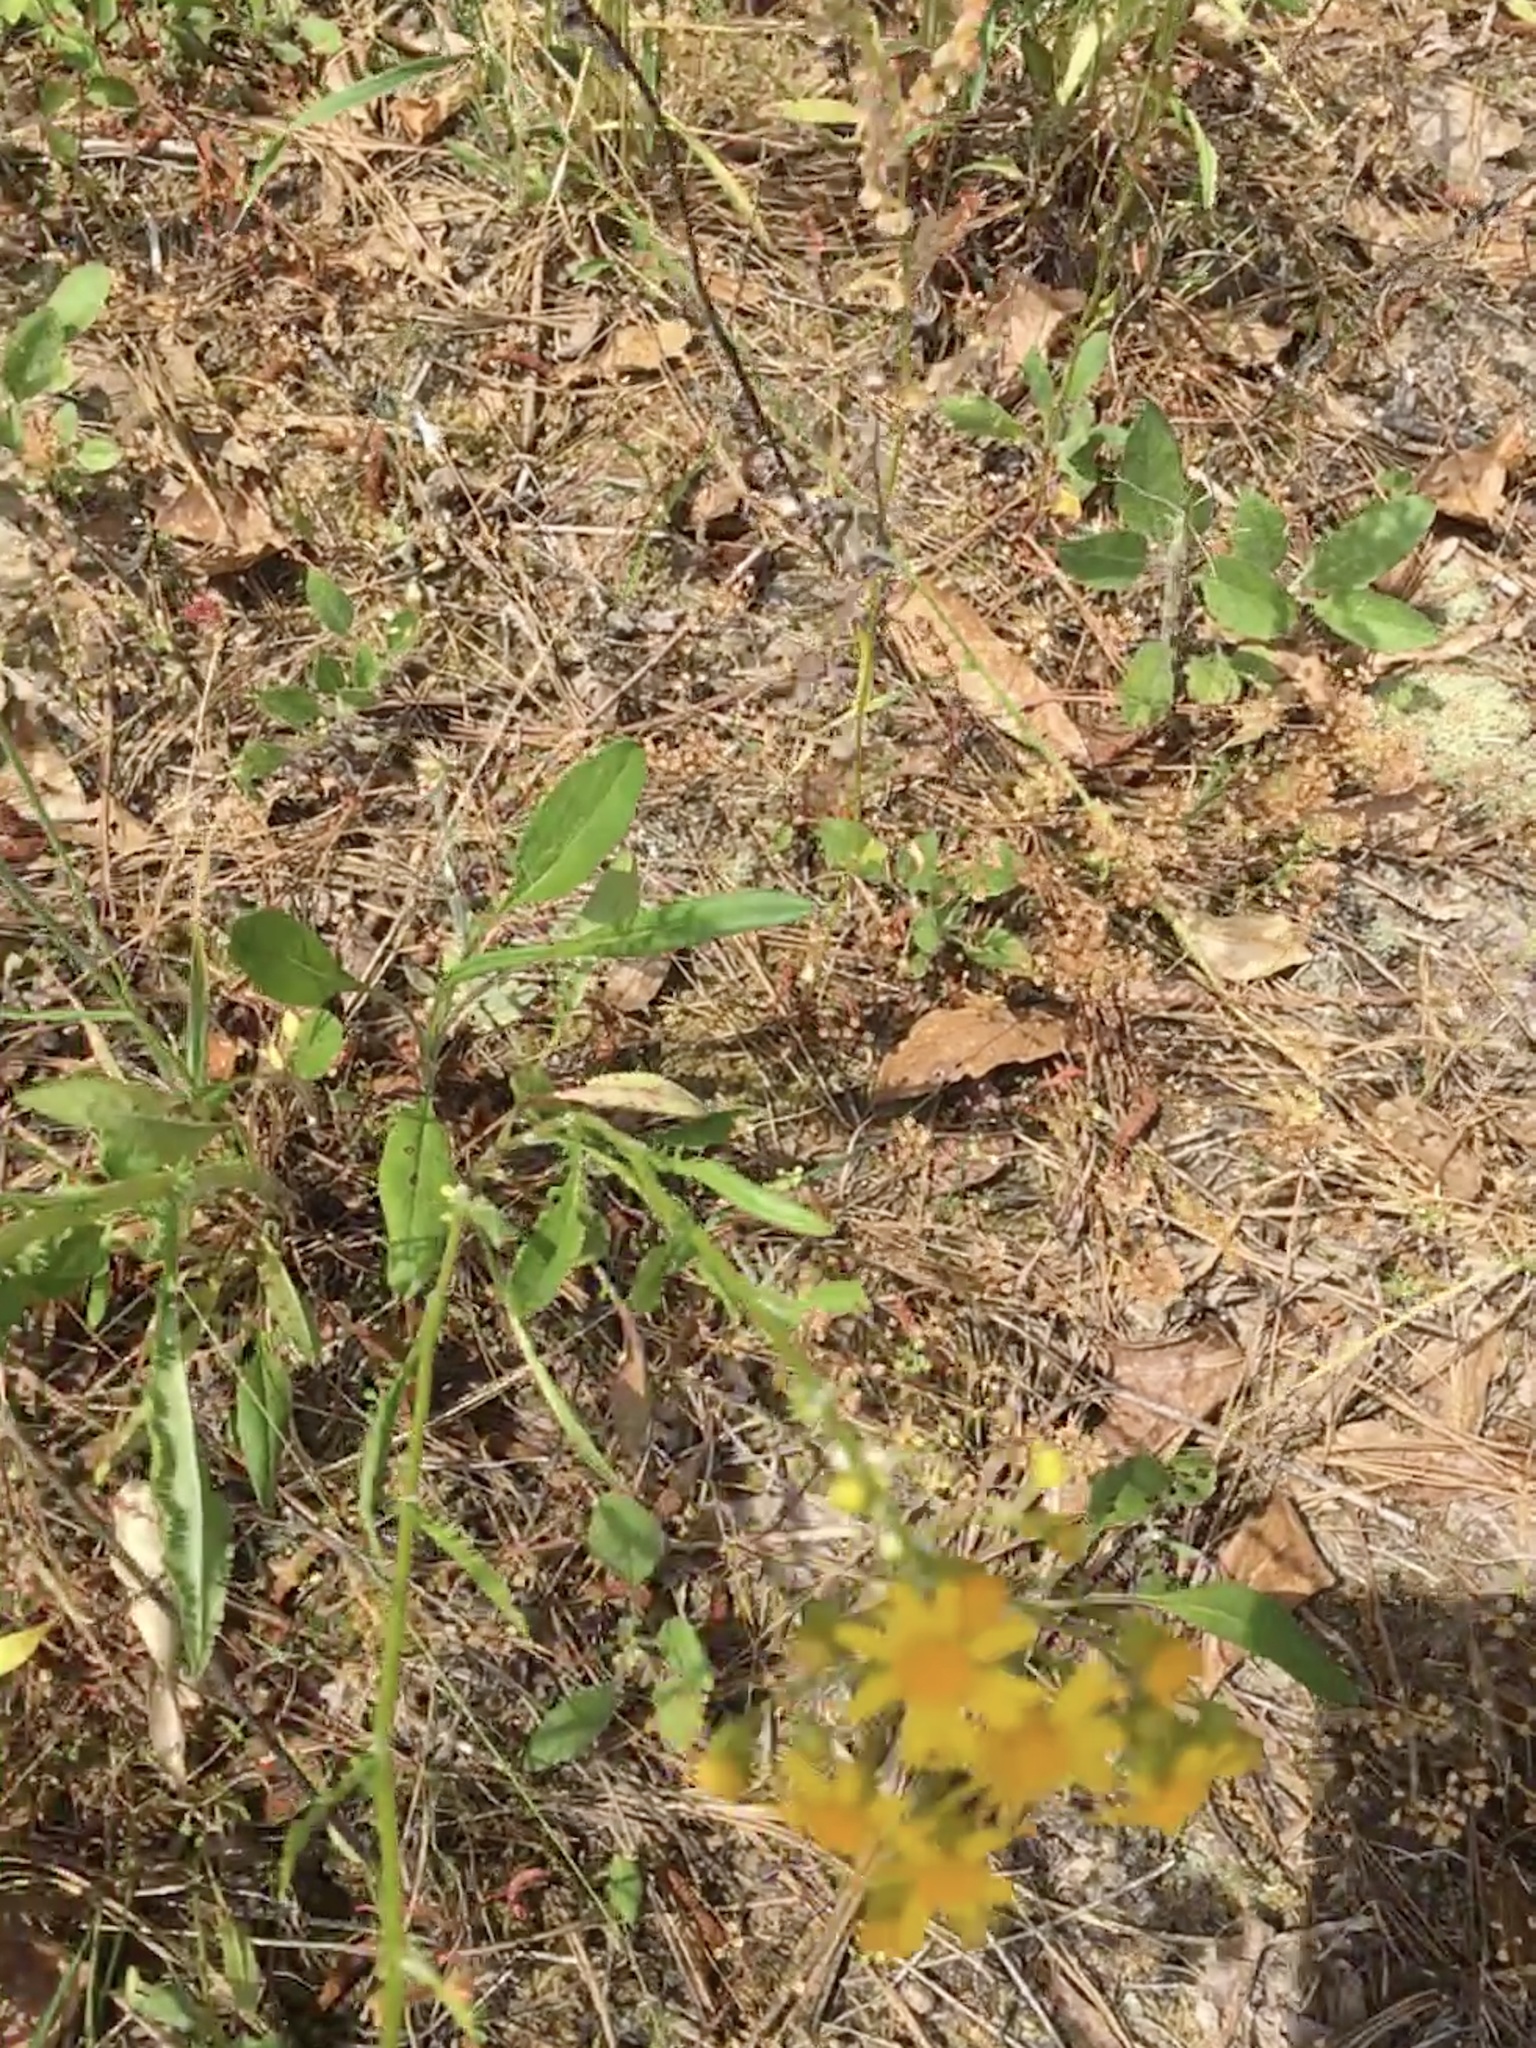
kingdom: Plantae
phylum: Tracheophyta
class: Magnoliopsida
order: Asterales
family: Asteraceae
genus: Packera
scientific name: Packera anonyma
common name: Small ragwort
